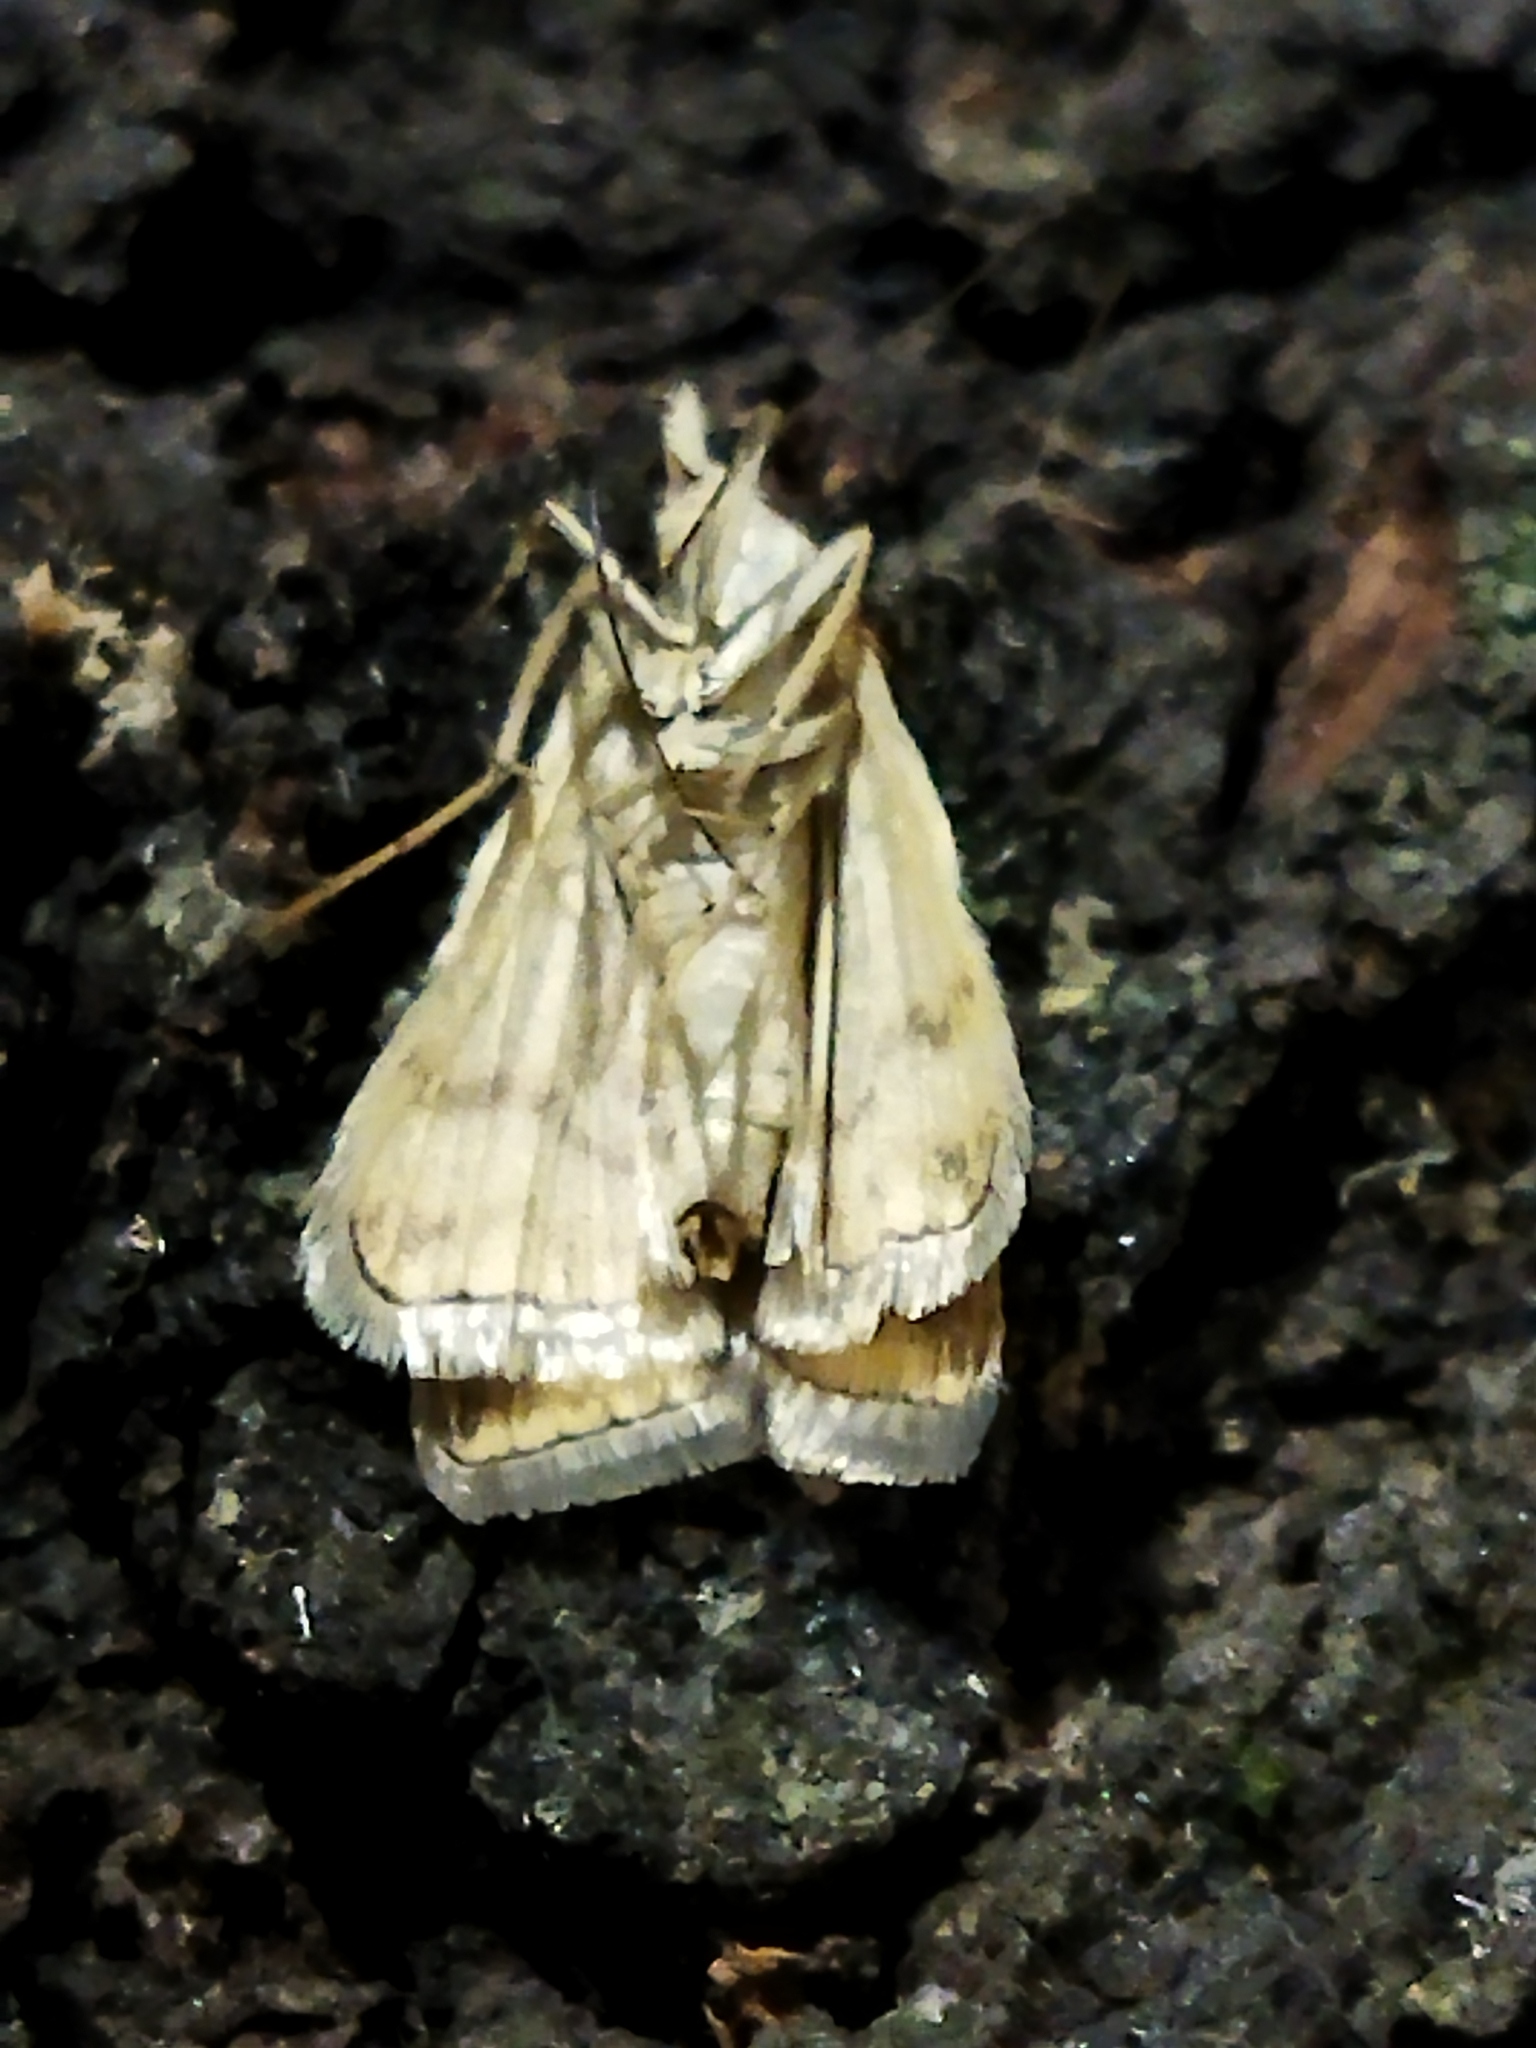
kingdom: Animalia
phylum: Arthropoda
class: Insecta
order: Lepidoptera
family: Crambidae
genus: Loxostege
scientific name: Loxostege sticticalis
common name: Crambid moth
